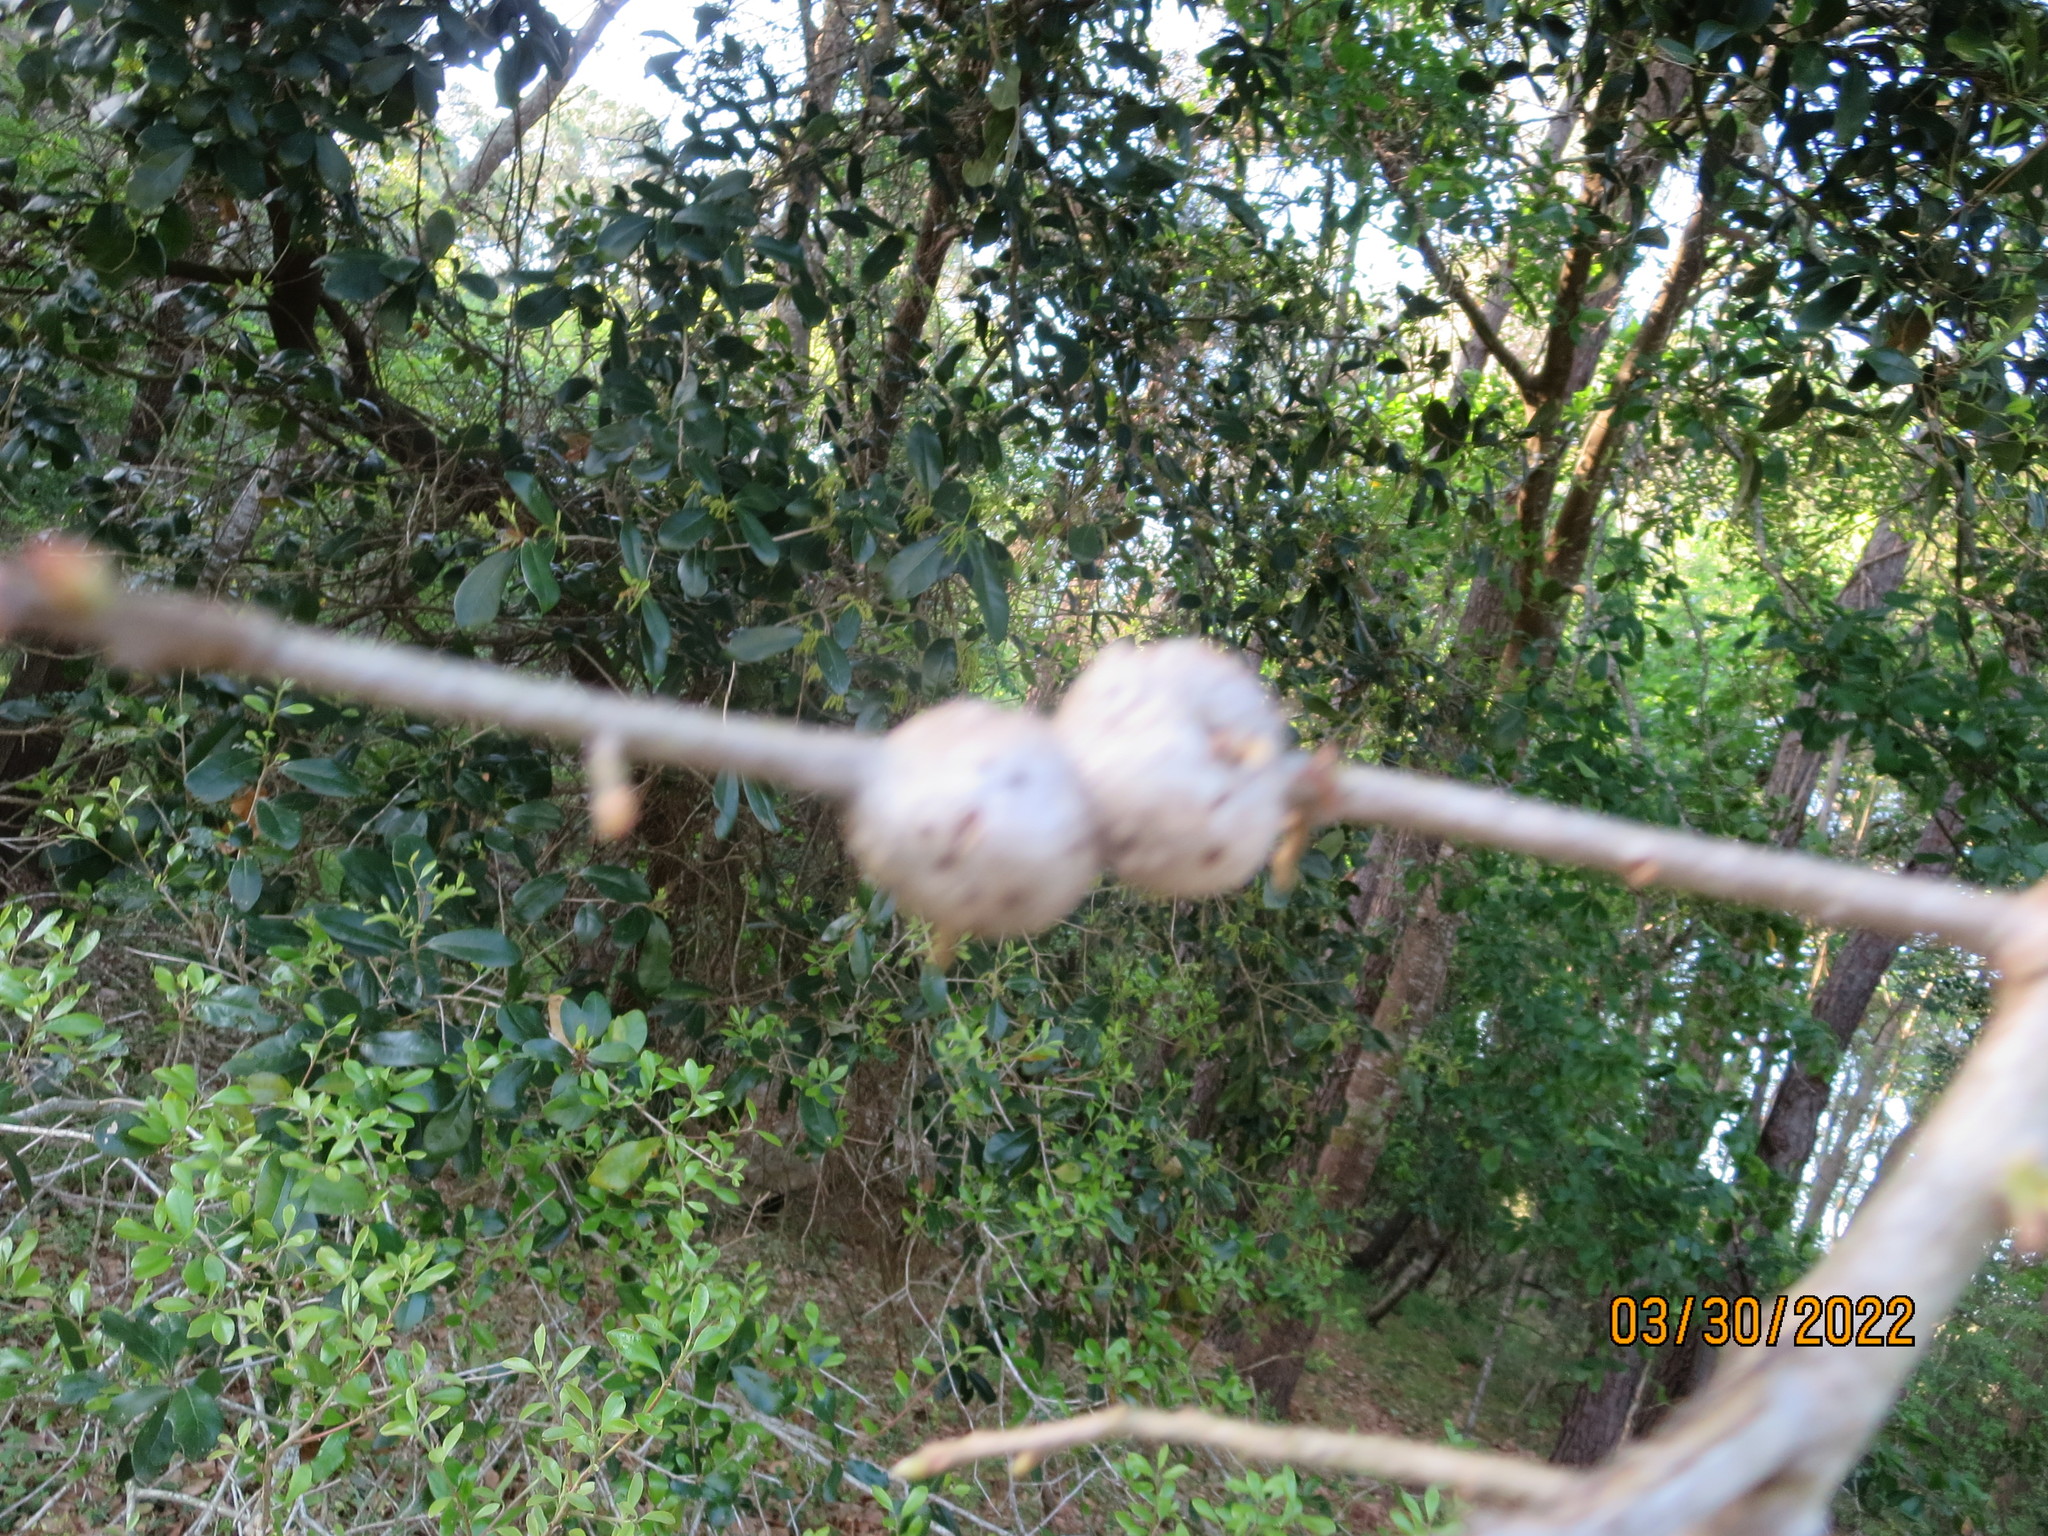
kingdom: Animalia
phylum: Arthropoda
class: Insecta
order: Hymenoptera
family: Cynipidae
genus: Callirhytis
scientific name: Callirhytis
